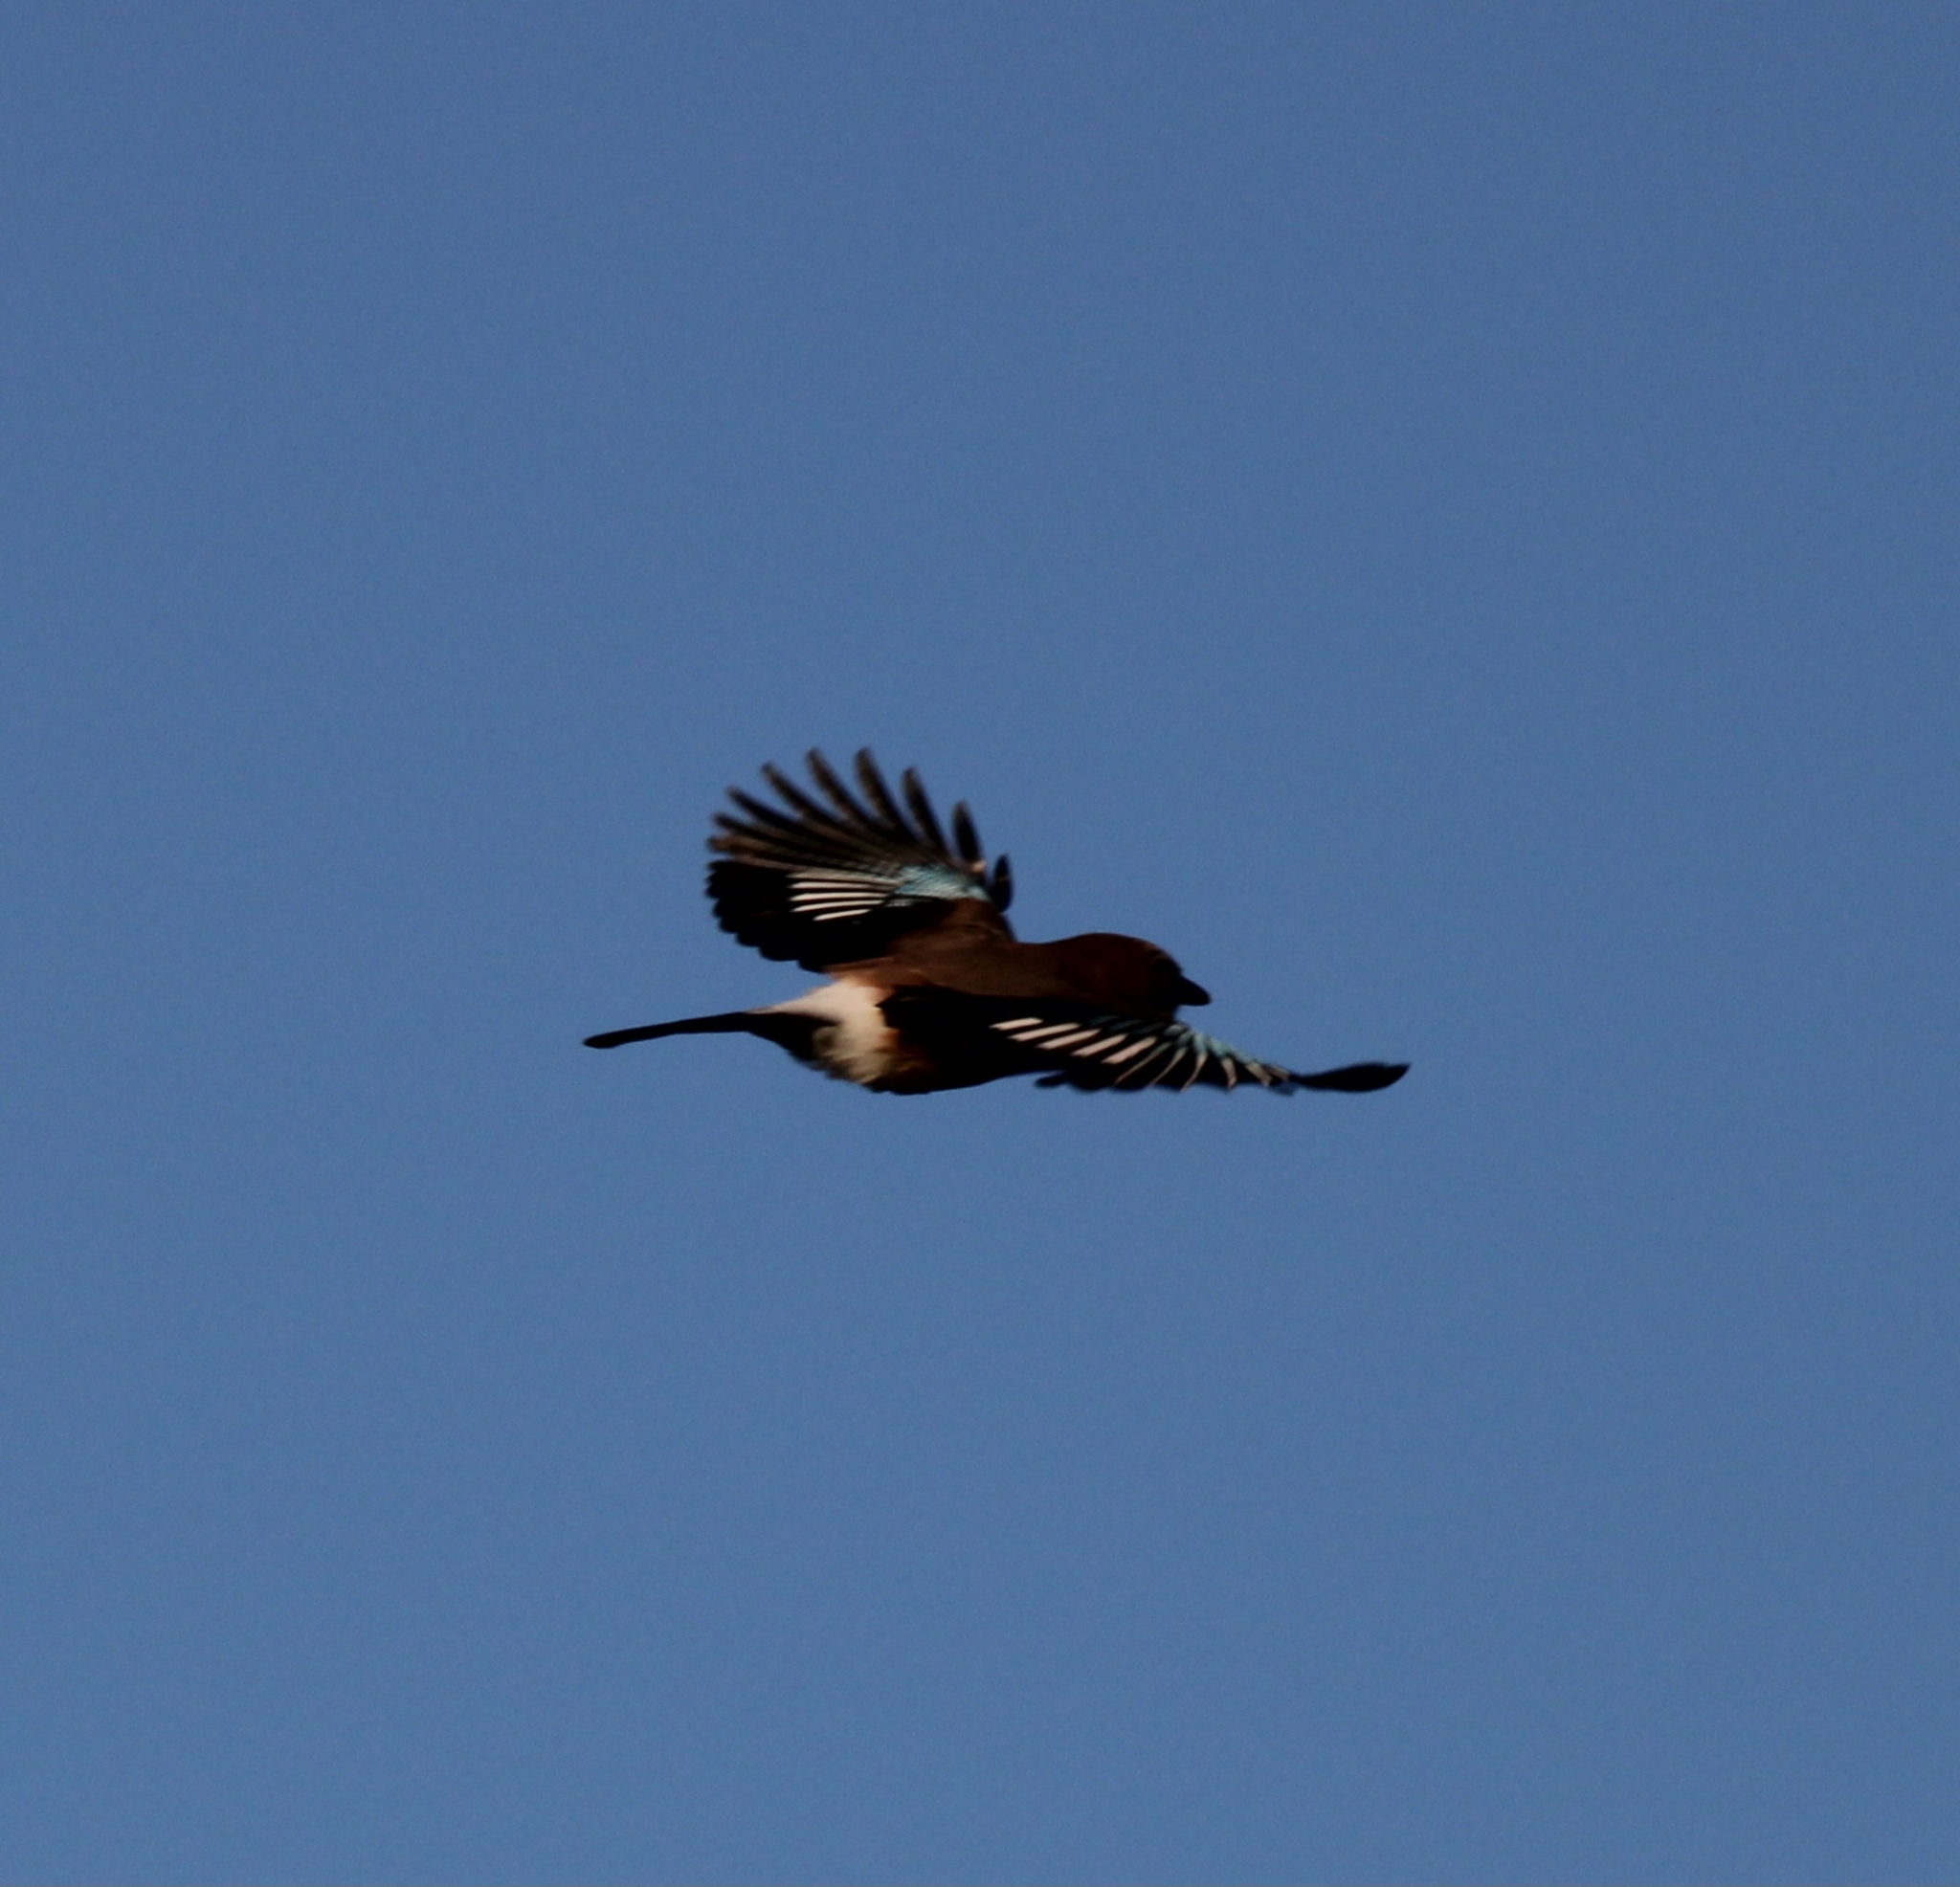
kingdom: Animalia
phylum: Chordata
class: Aves
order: Passeriformes
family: Corvidae
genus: Garrulus
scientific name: Garrulus glandarius
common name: Eurasian jay
